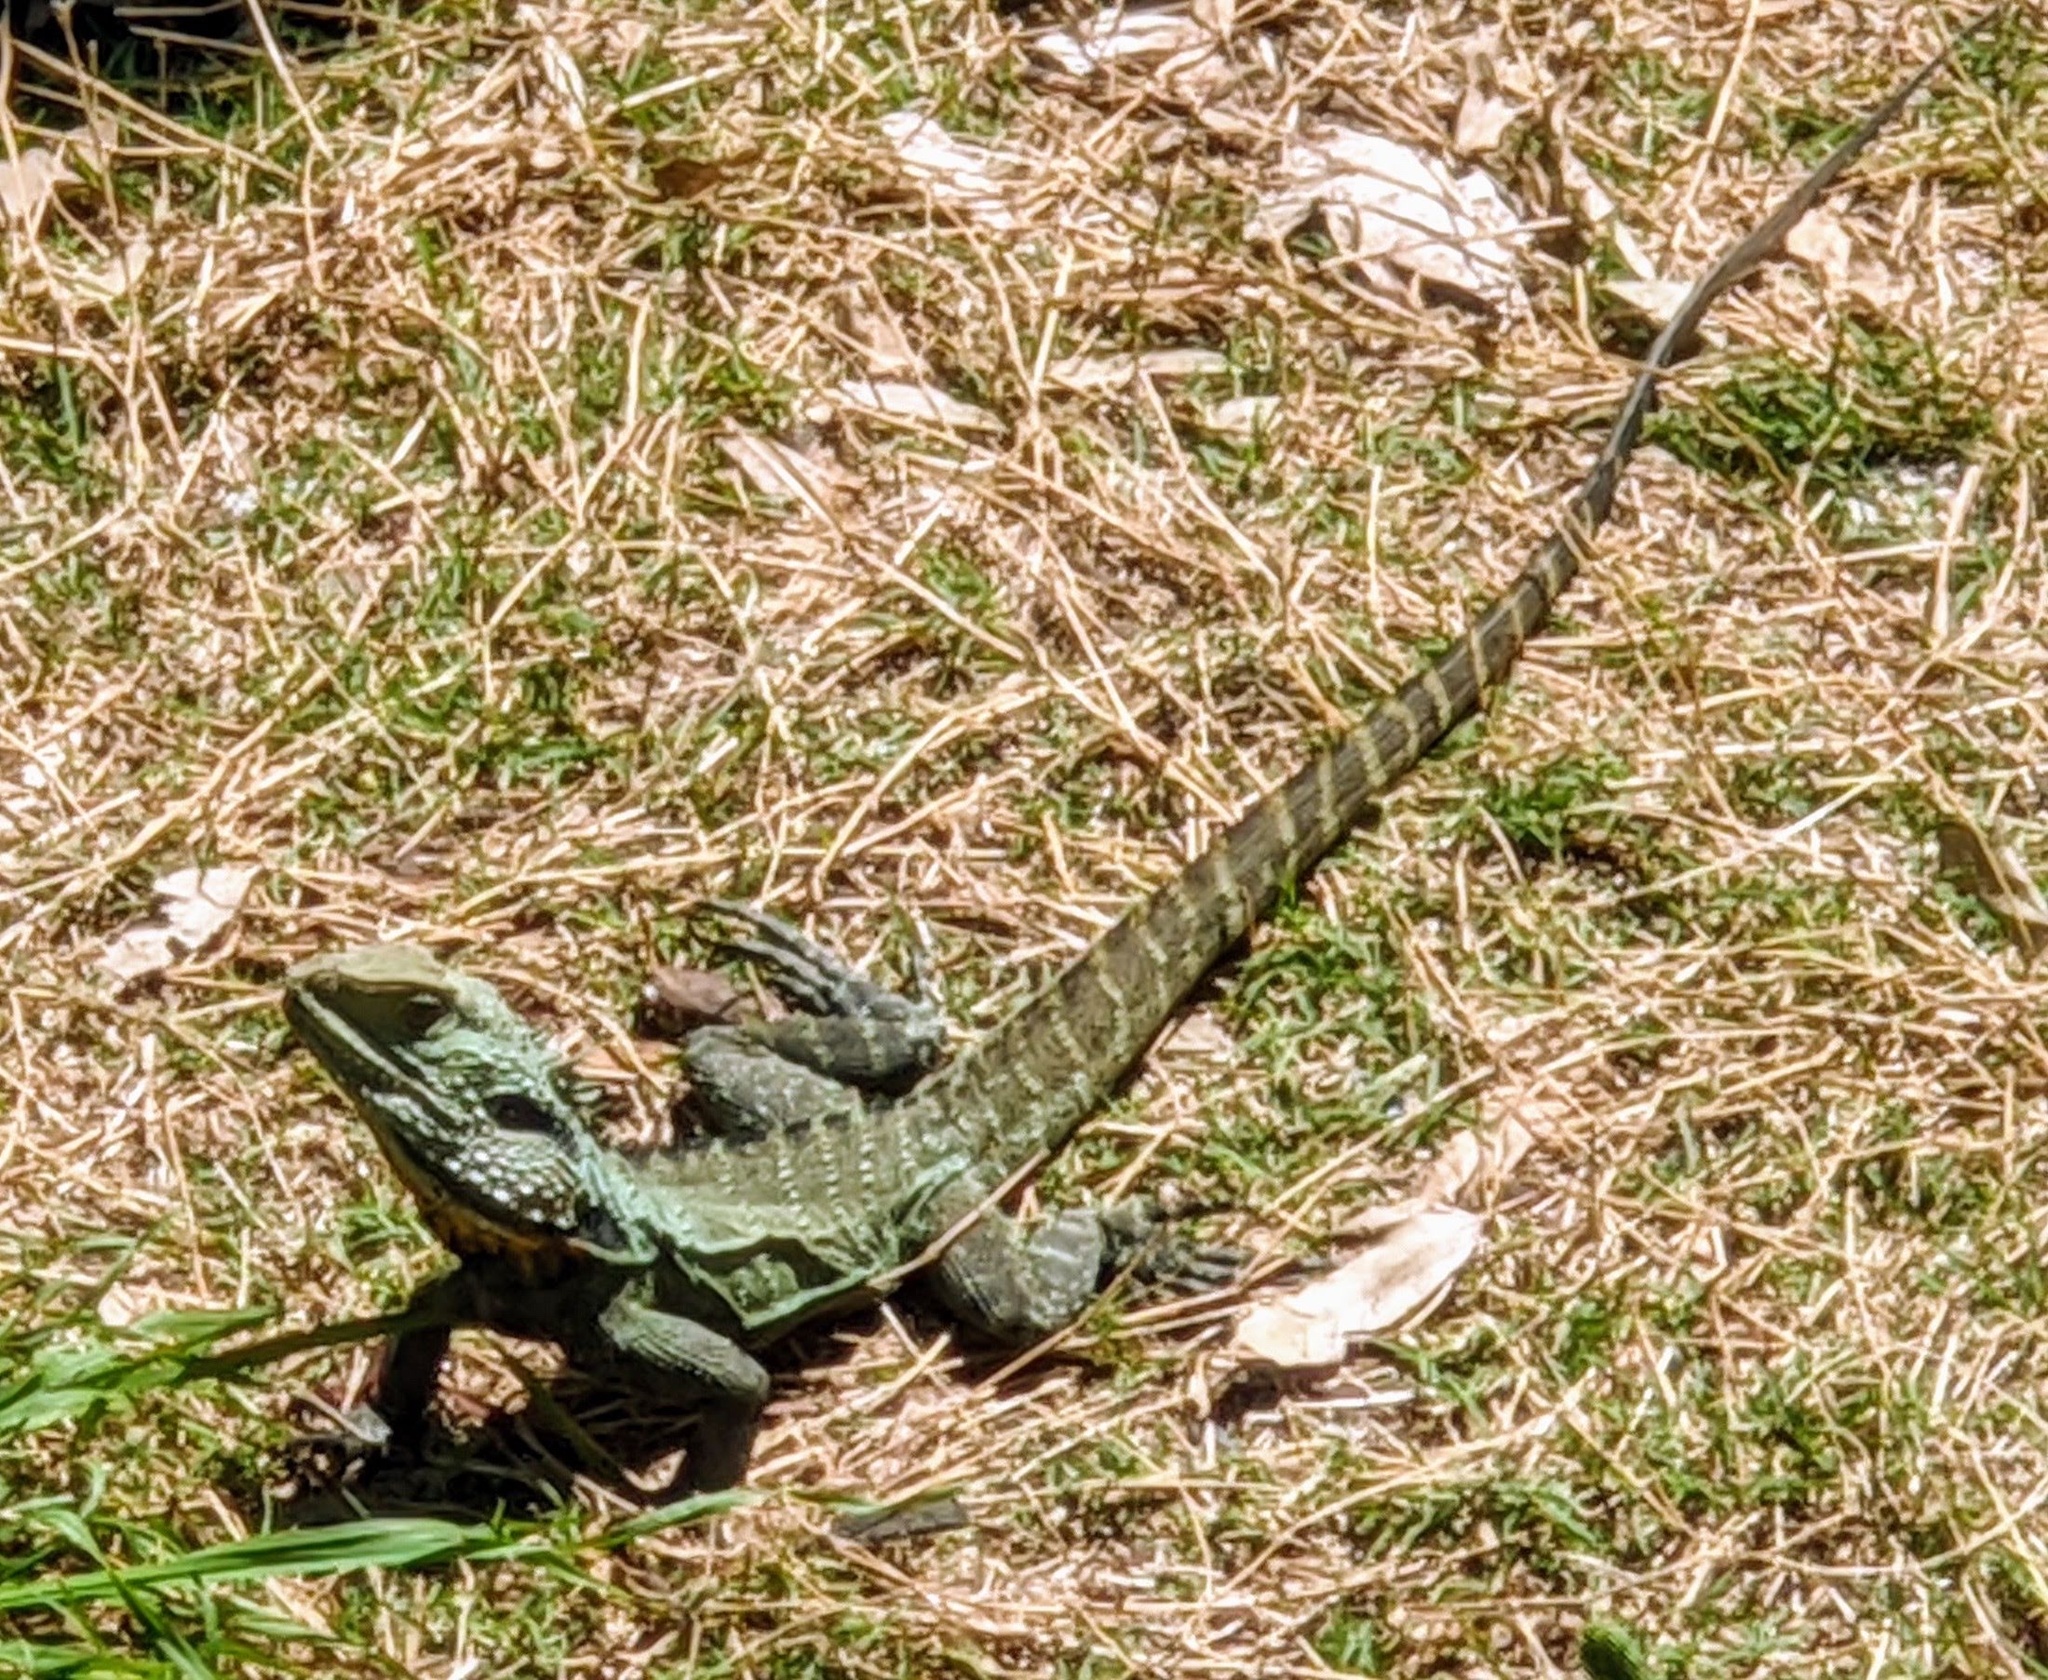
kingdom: Animalia
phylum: Chordata
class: Squamata
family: Agamidae
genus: Intellagama
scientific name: Intellagama lesueurii
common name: Eastern water dragon
